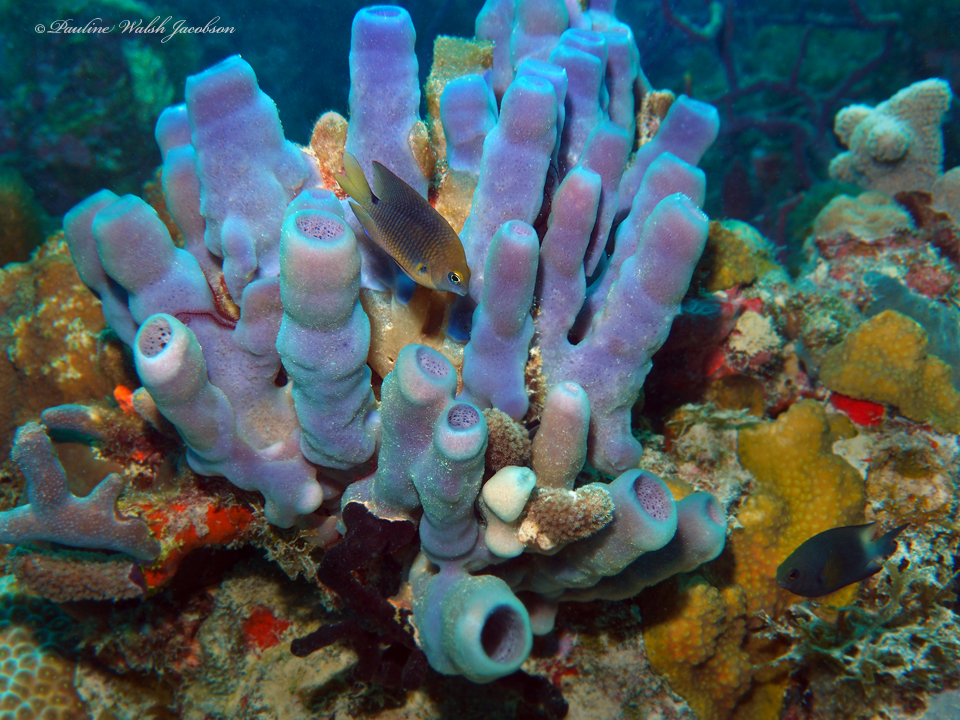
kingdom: Animalia
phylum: Chordata
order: Perciformes
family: Pomacentridae
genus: Stegastes
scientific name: Stegastes planifrons
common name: Threespot damselfish
